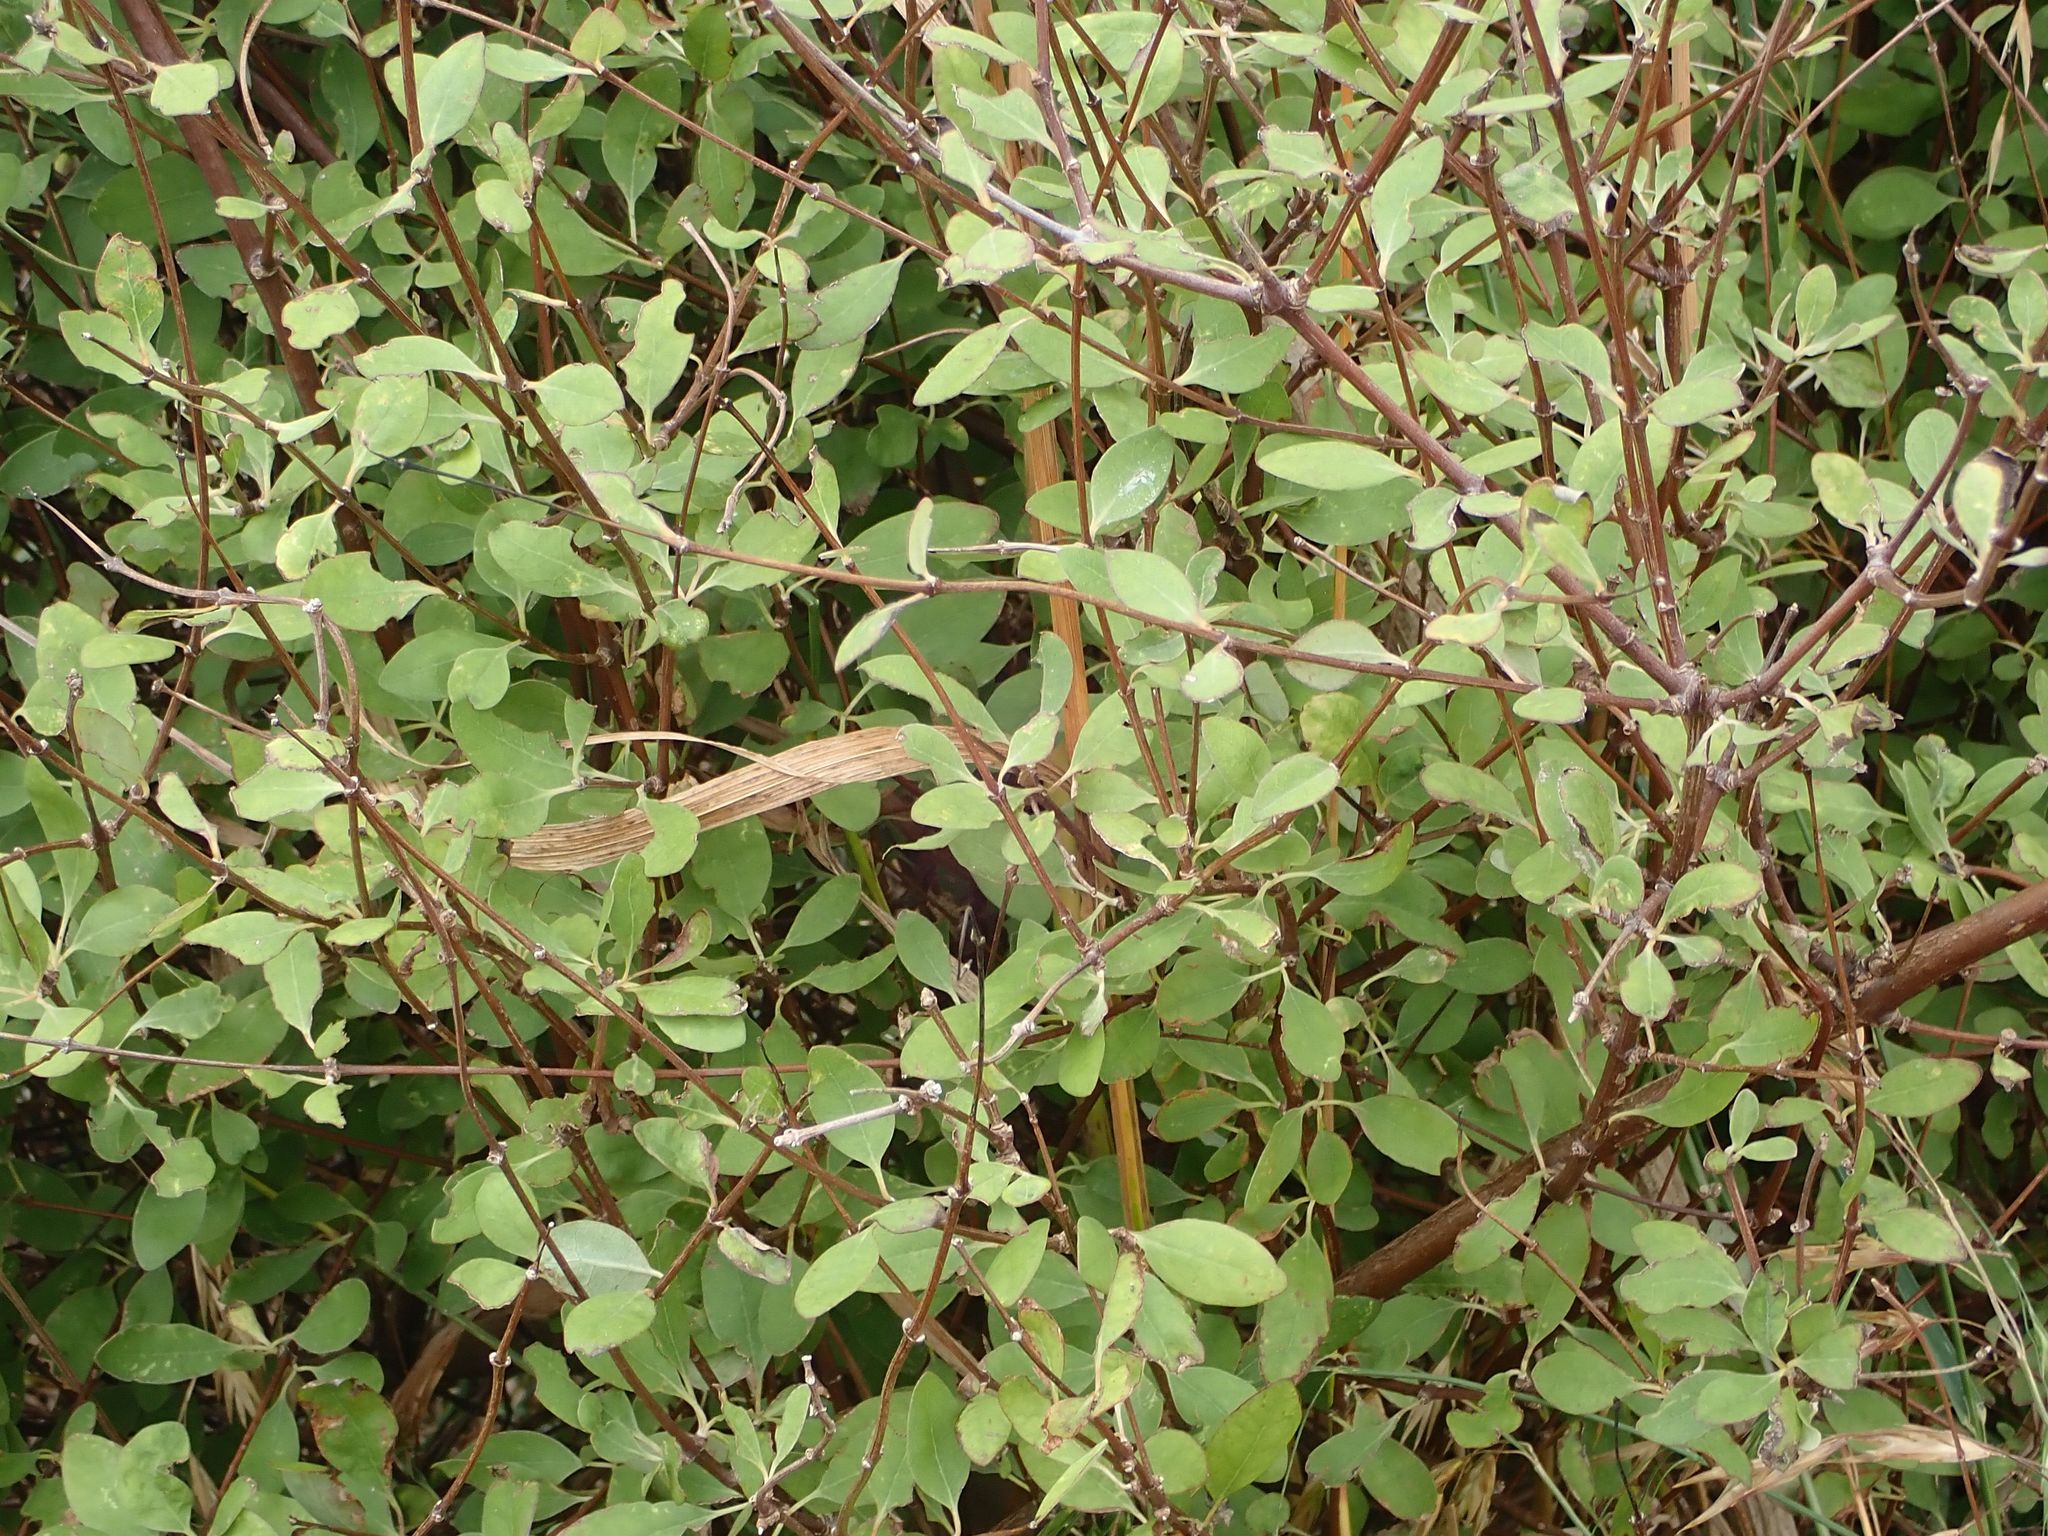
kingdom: Plantae
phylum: Tracheophyta
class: Magnoliopsida
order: Asterales
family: Asteraceae
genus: Olearia
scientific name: Olearia hectorii
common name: Deciduous tree daisy
